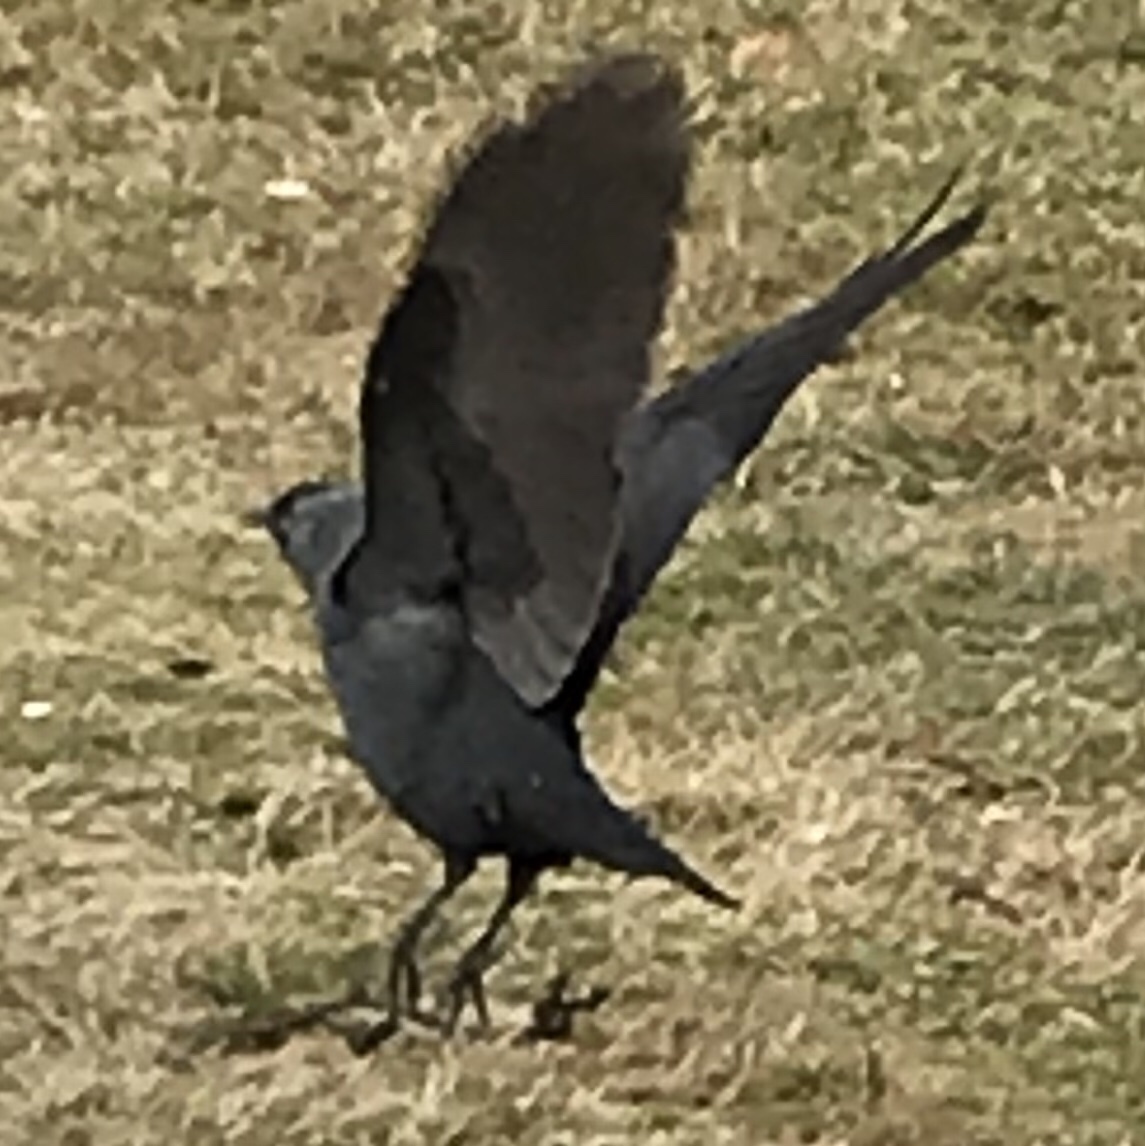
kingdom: Animalia
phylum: Chordata
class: Aves
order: Passeriformes
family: Corvidae
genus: Coloeus
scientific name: Coloeus monedula
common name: Western jackdaw
